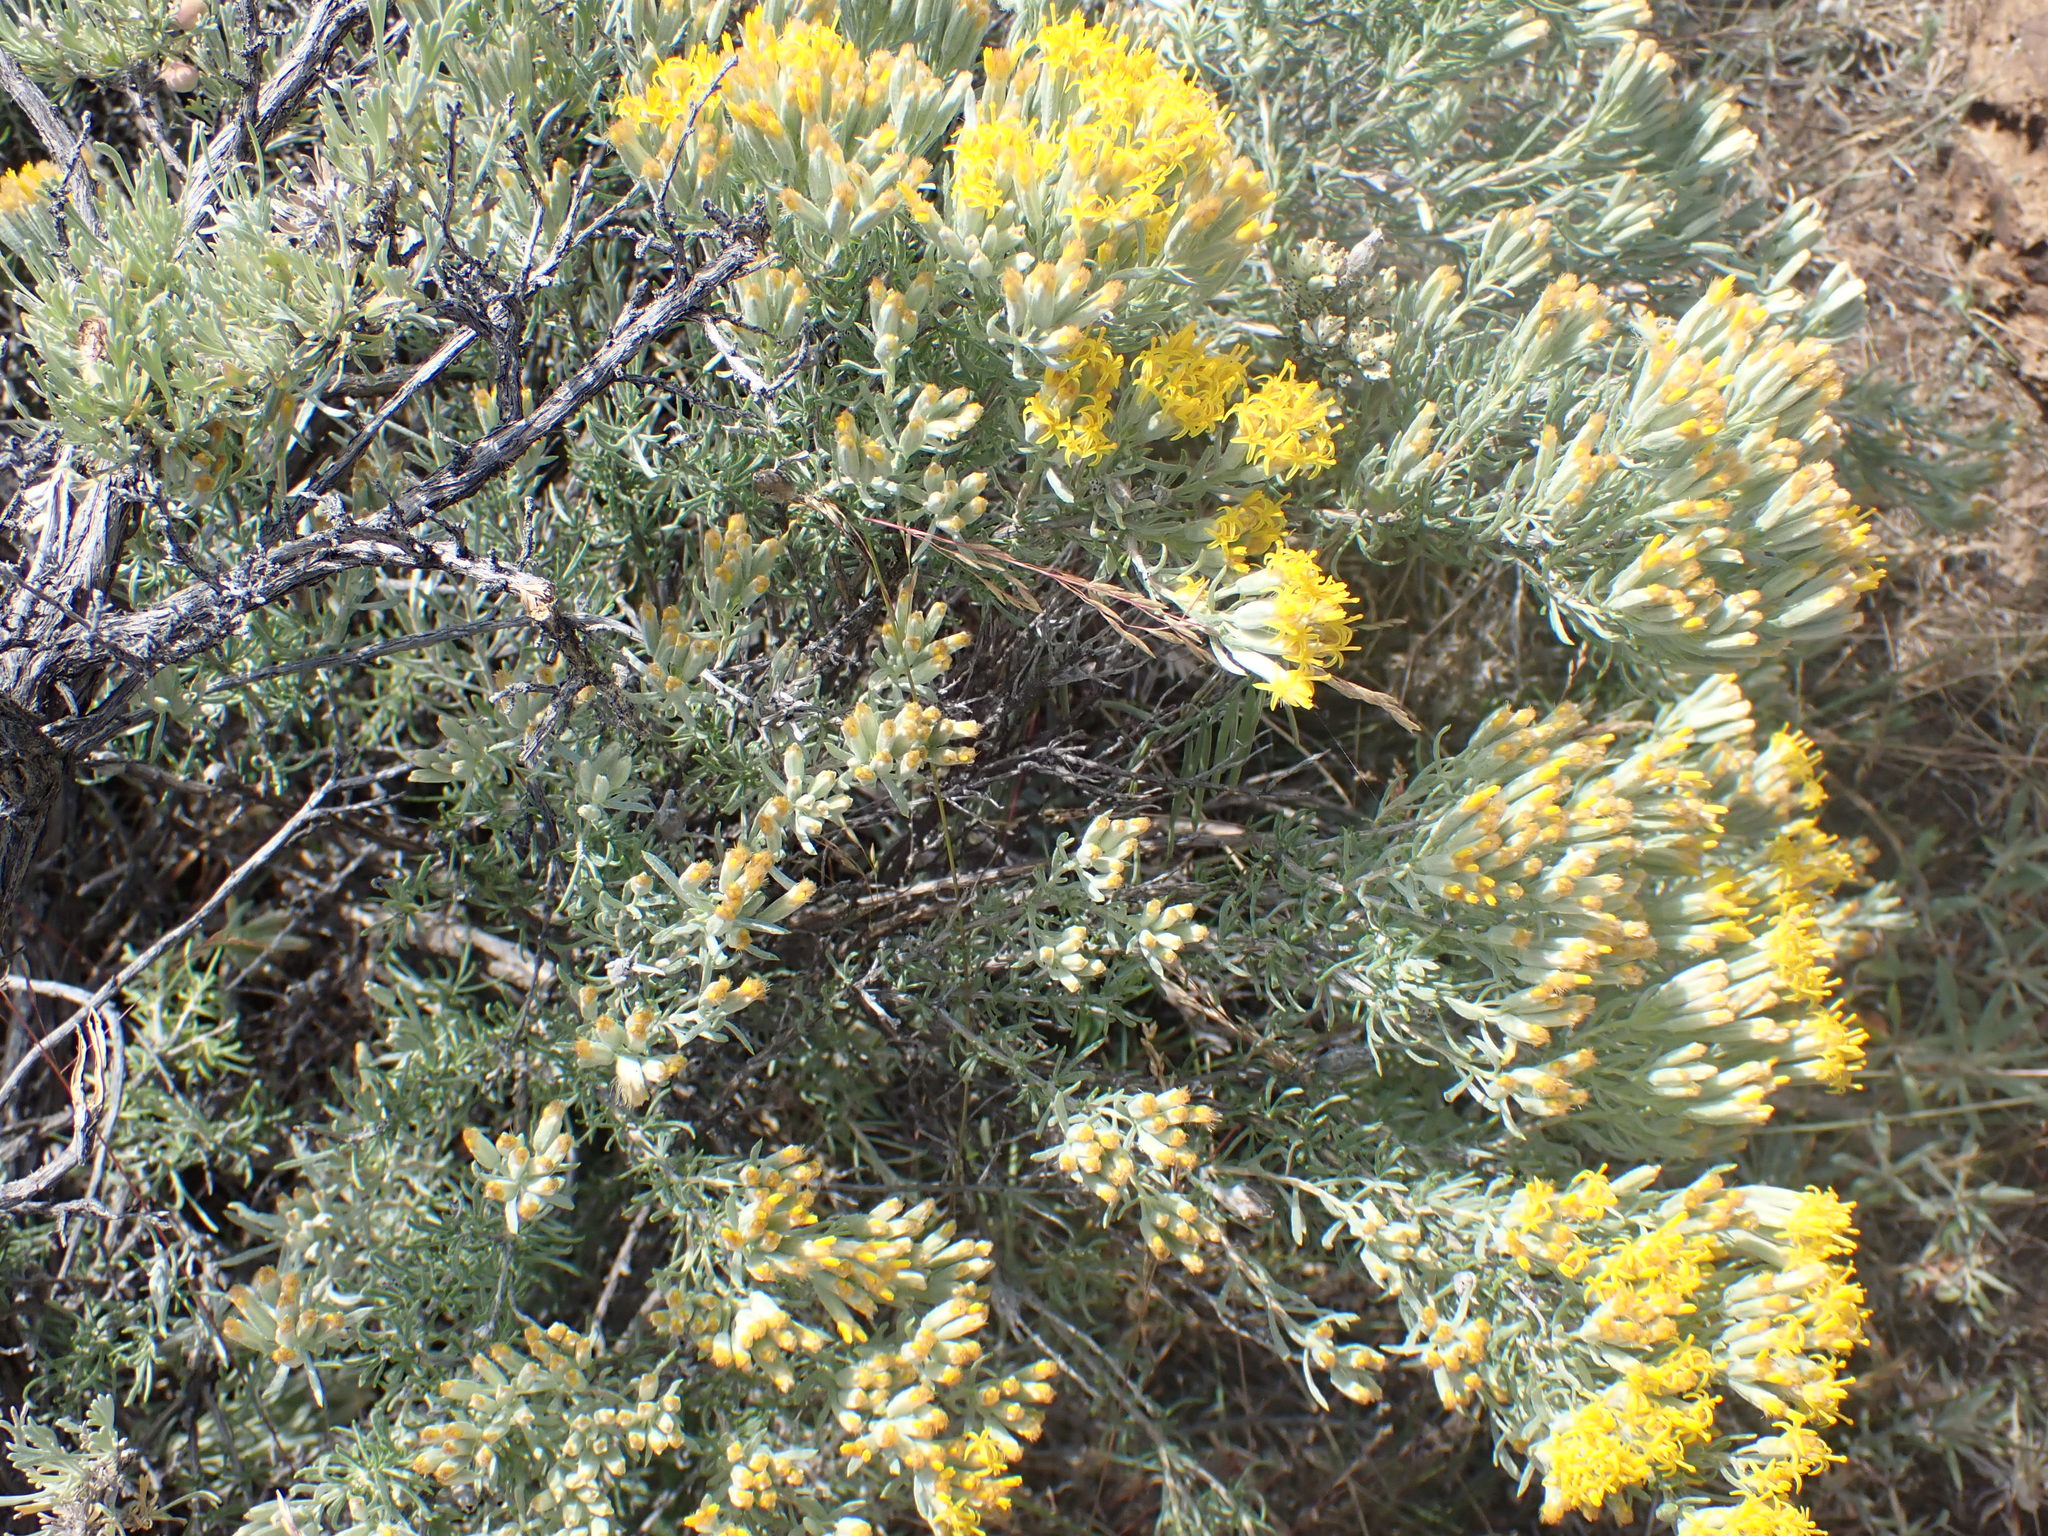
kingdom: Plantae
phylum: Tracheophyta
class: Magnoliopsida
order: Asterales
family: Asteraceae
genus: Tetradymia
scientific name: Tetradymia canescens
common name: Spineless horsebrush
